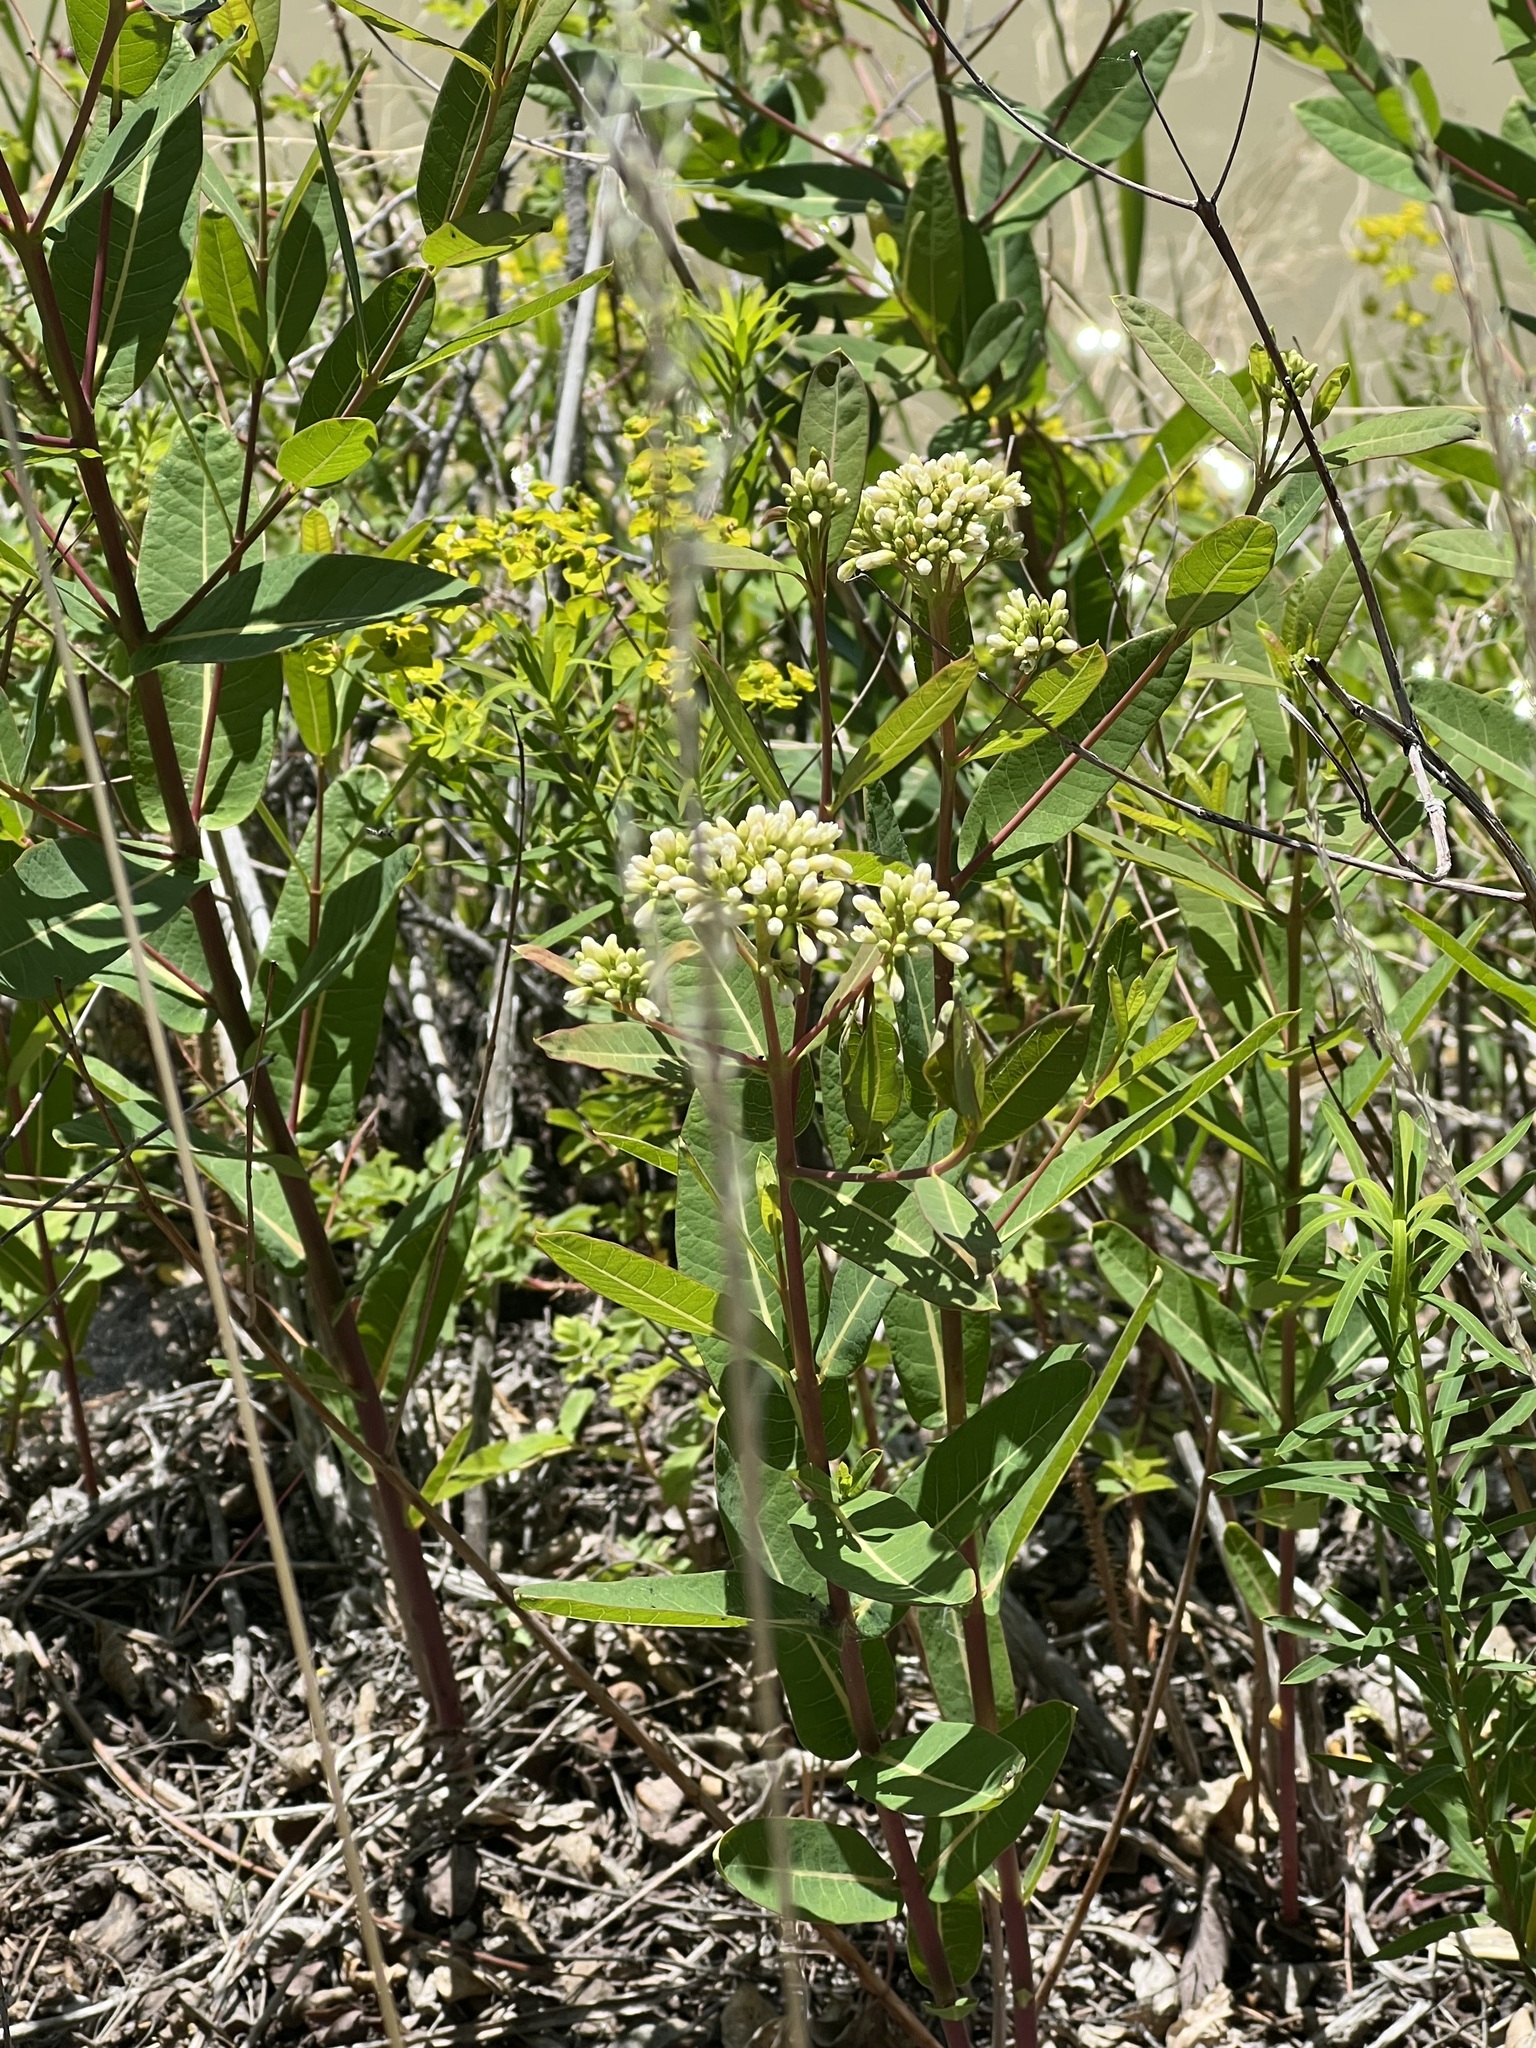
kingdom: Plantae
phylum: Tracheophyta
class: Magnoliopsida
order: Gentianales
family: Apocynaceae
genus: Apocynum
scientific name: Apocynum cannabinum
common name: Hemp dogbane
